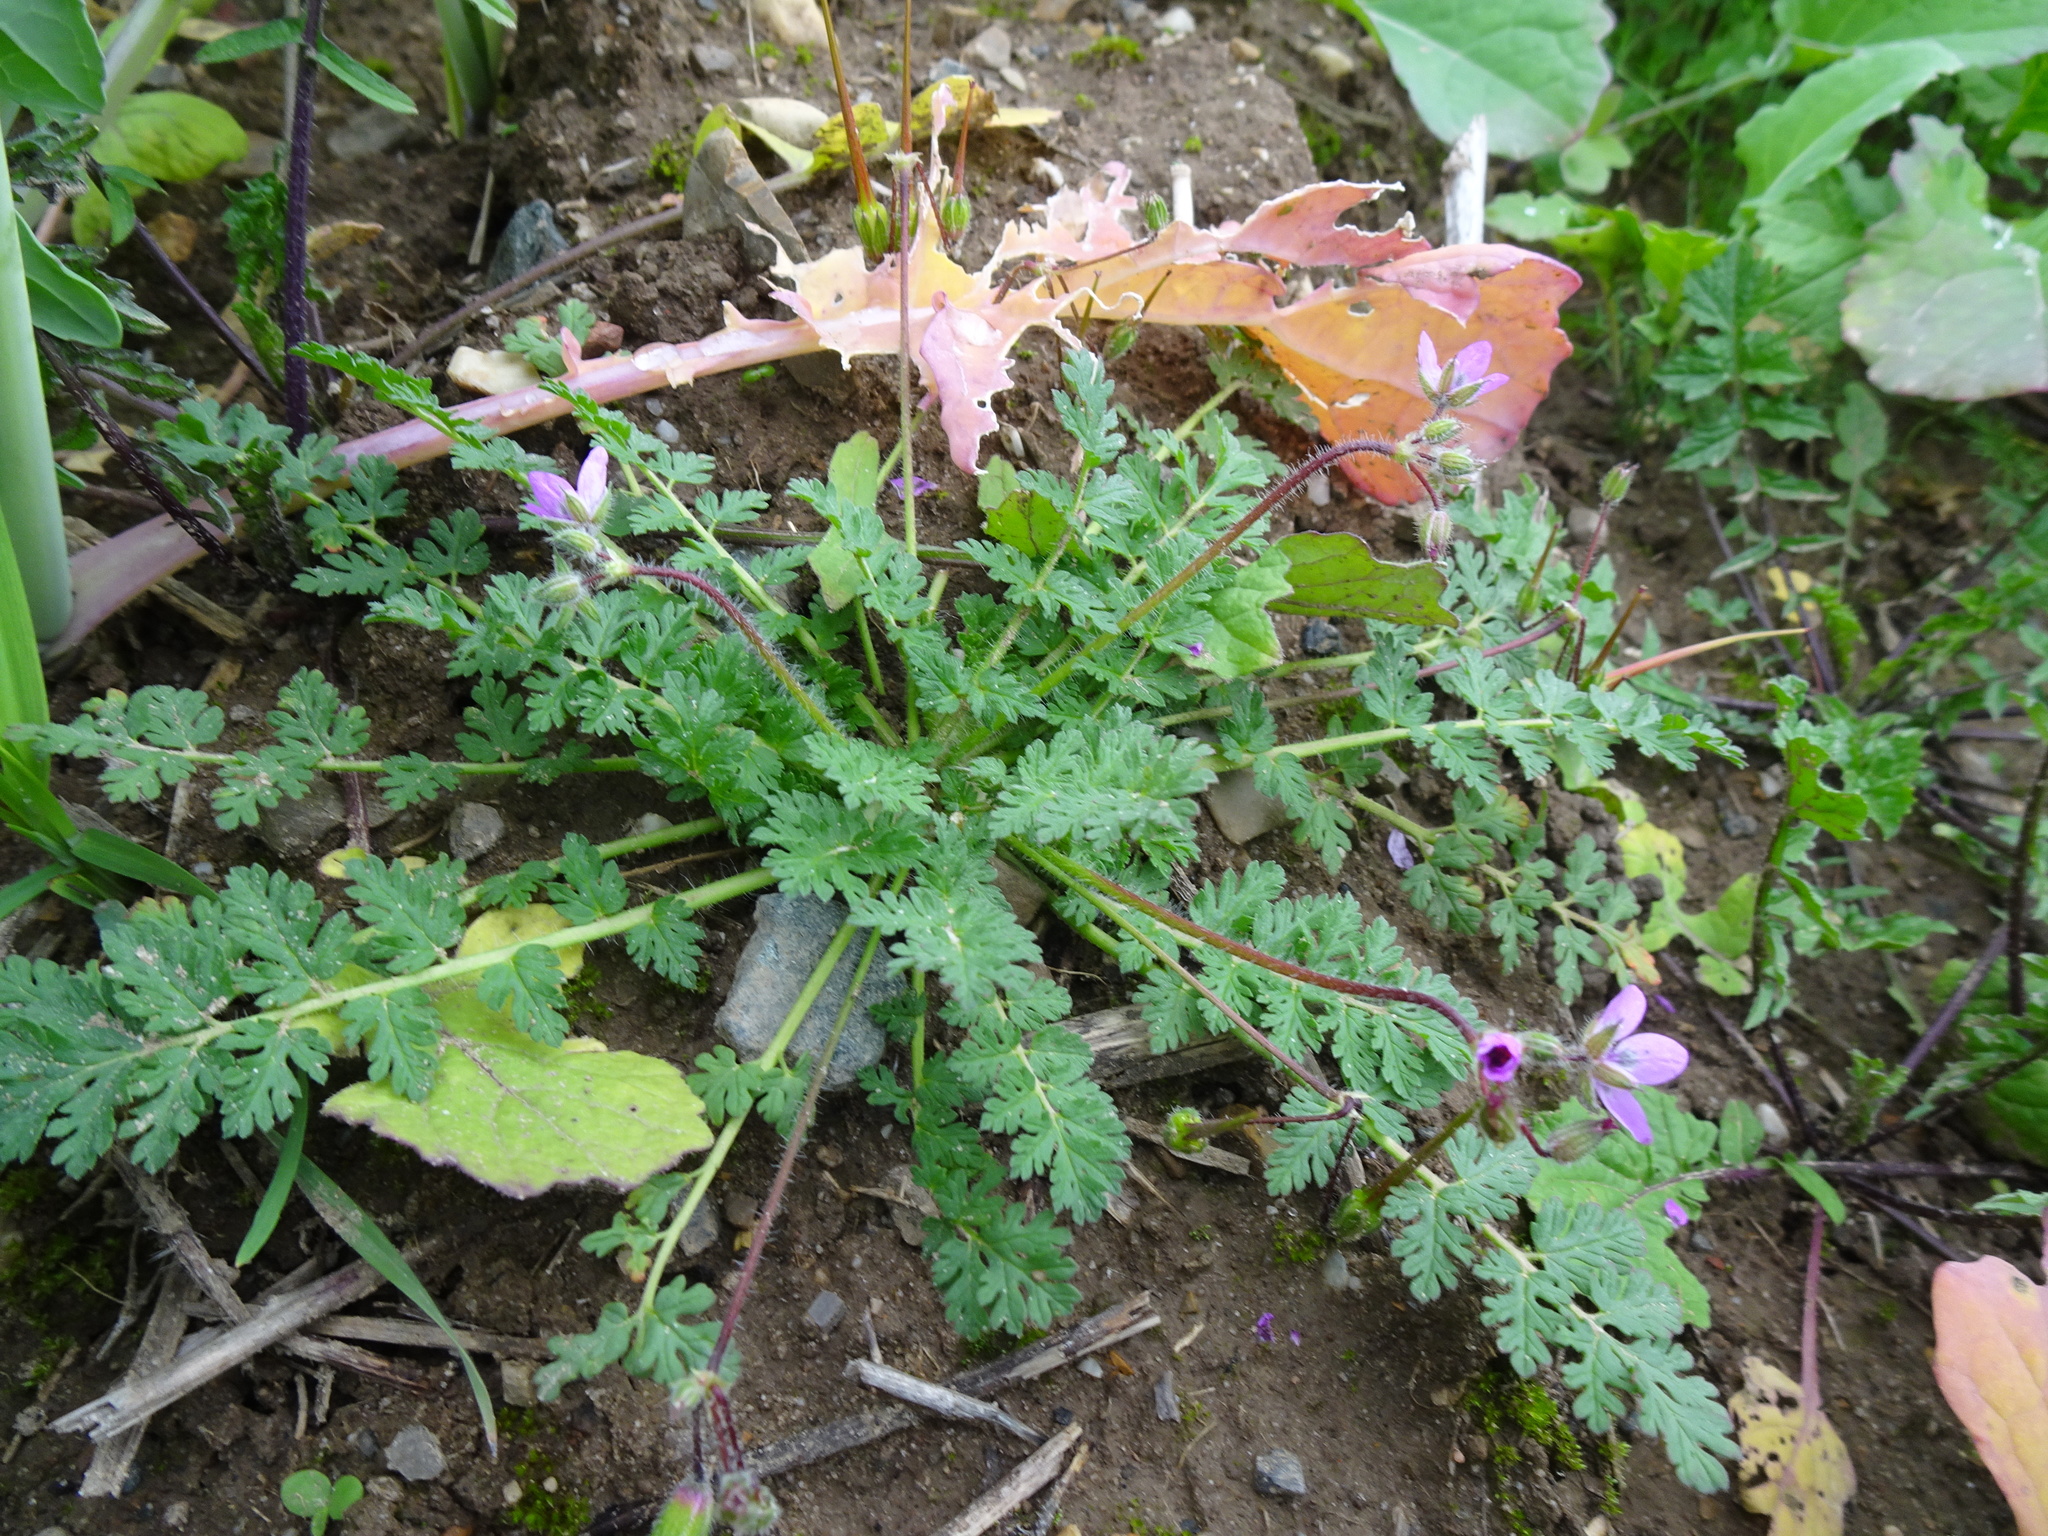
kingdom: Plantae
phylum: Tracheophyta
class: Magnoliopsida
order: Geraniales
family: Geraniaceae
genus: Erodium
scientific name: Erodium cicutarium
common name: Common stork's-bill
